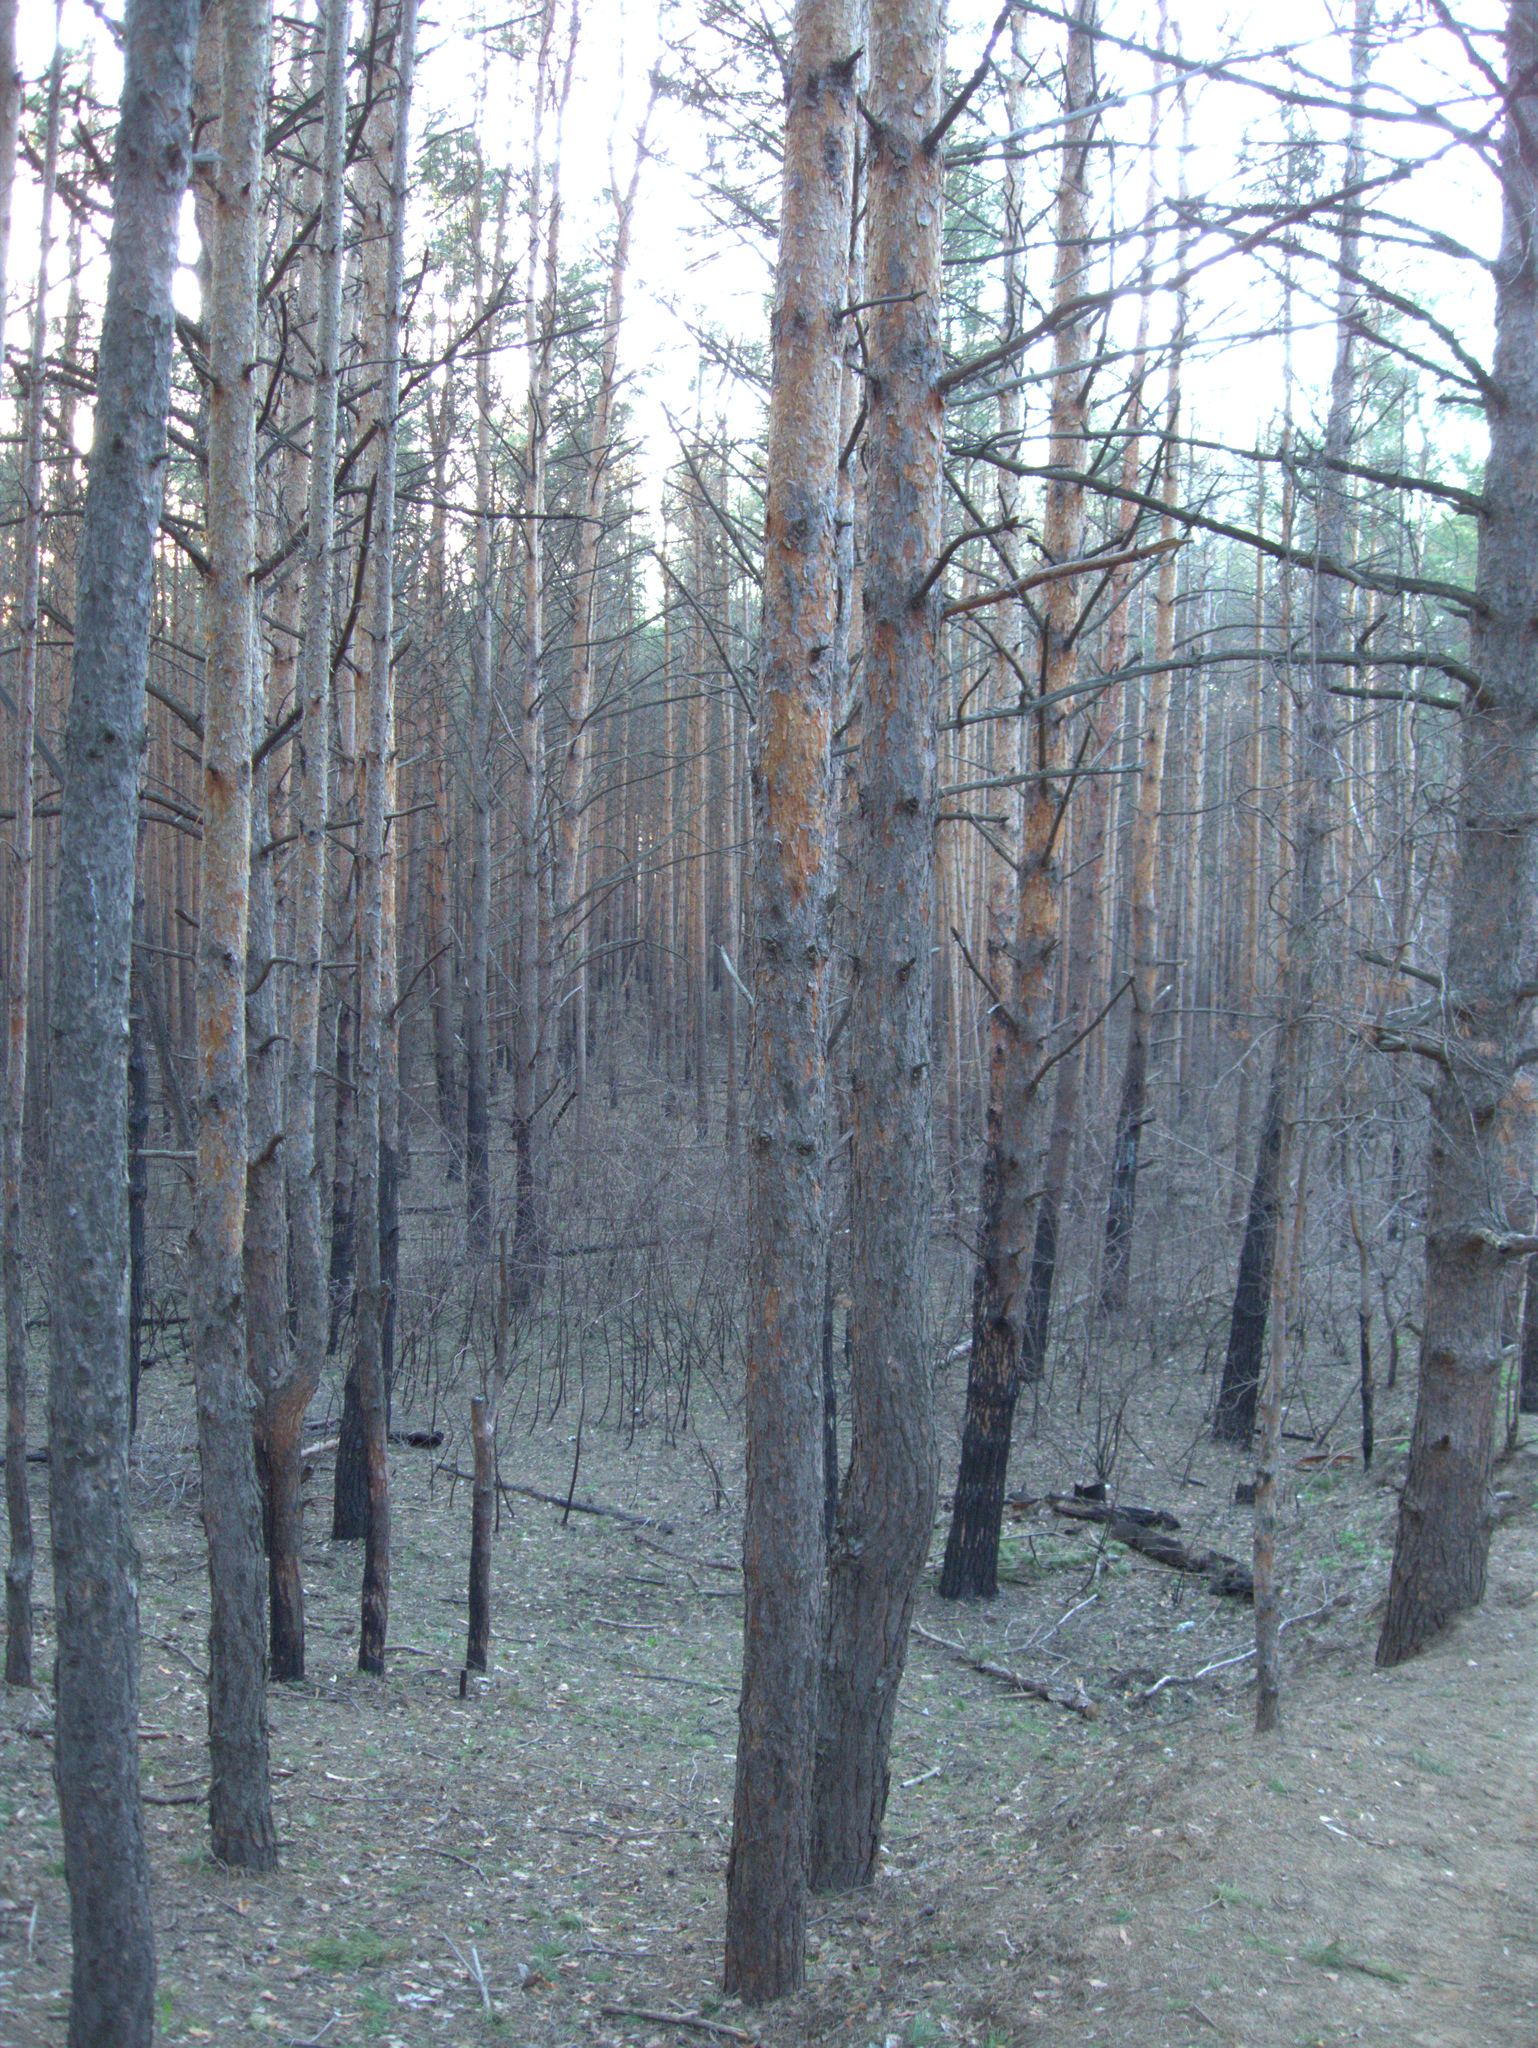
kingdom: Plantae
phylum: Tracheophyta
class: Pinopsida
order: Pinales
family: Pinaceae
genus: Pinus
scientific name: Pinus sylvestris
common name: Scots pine
